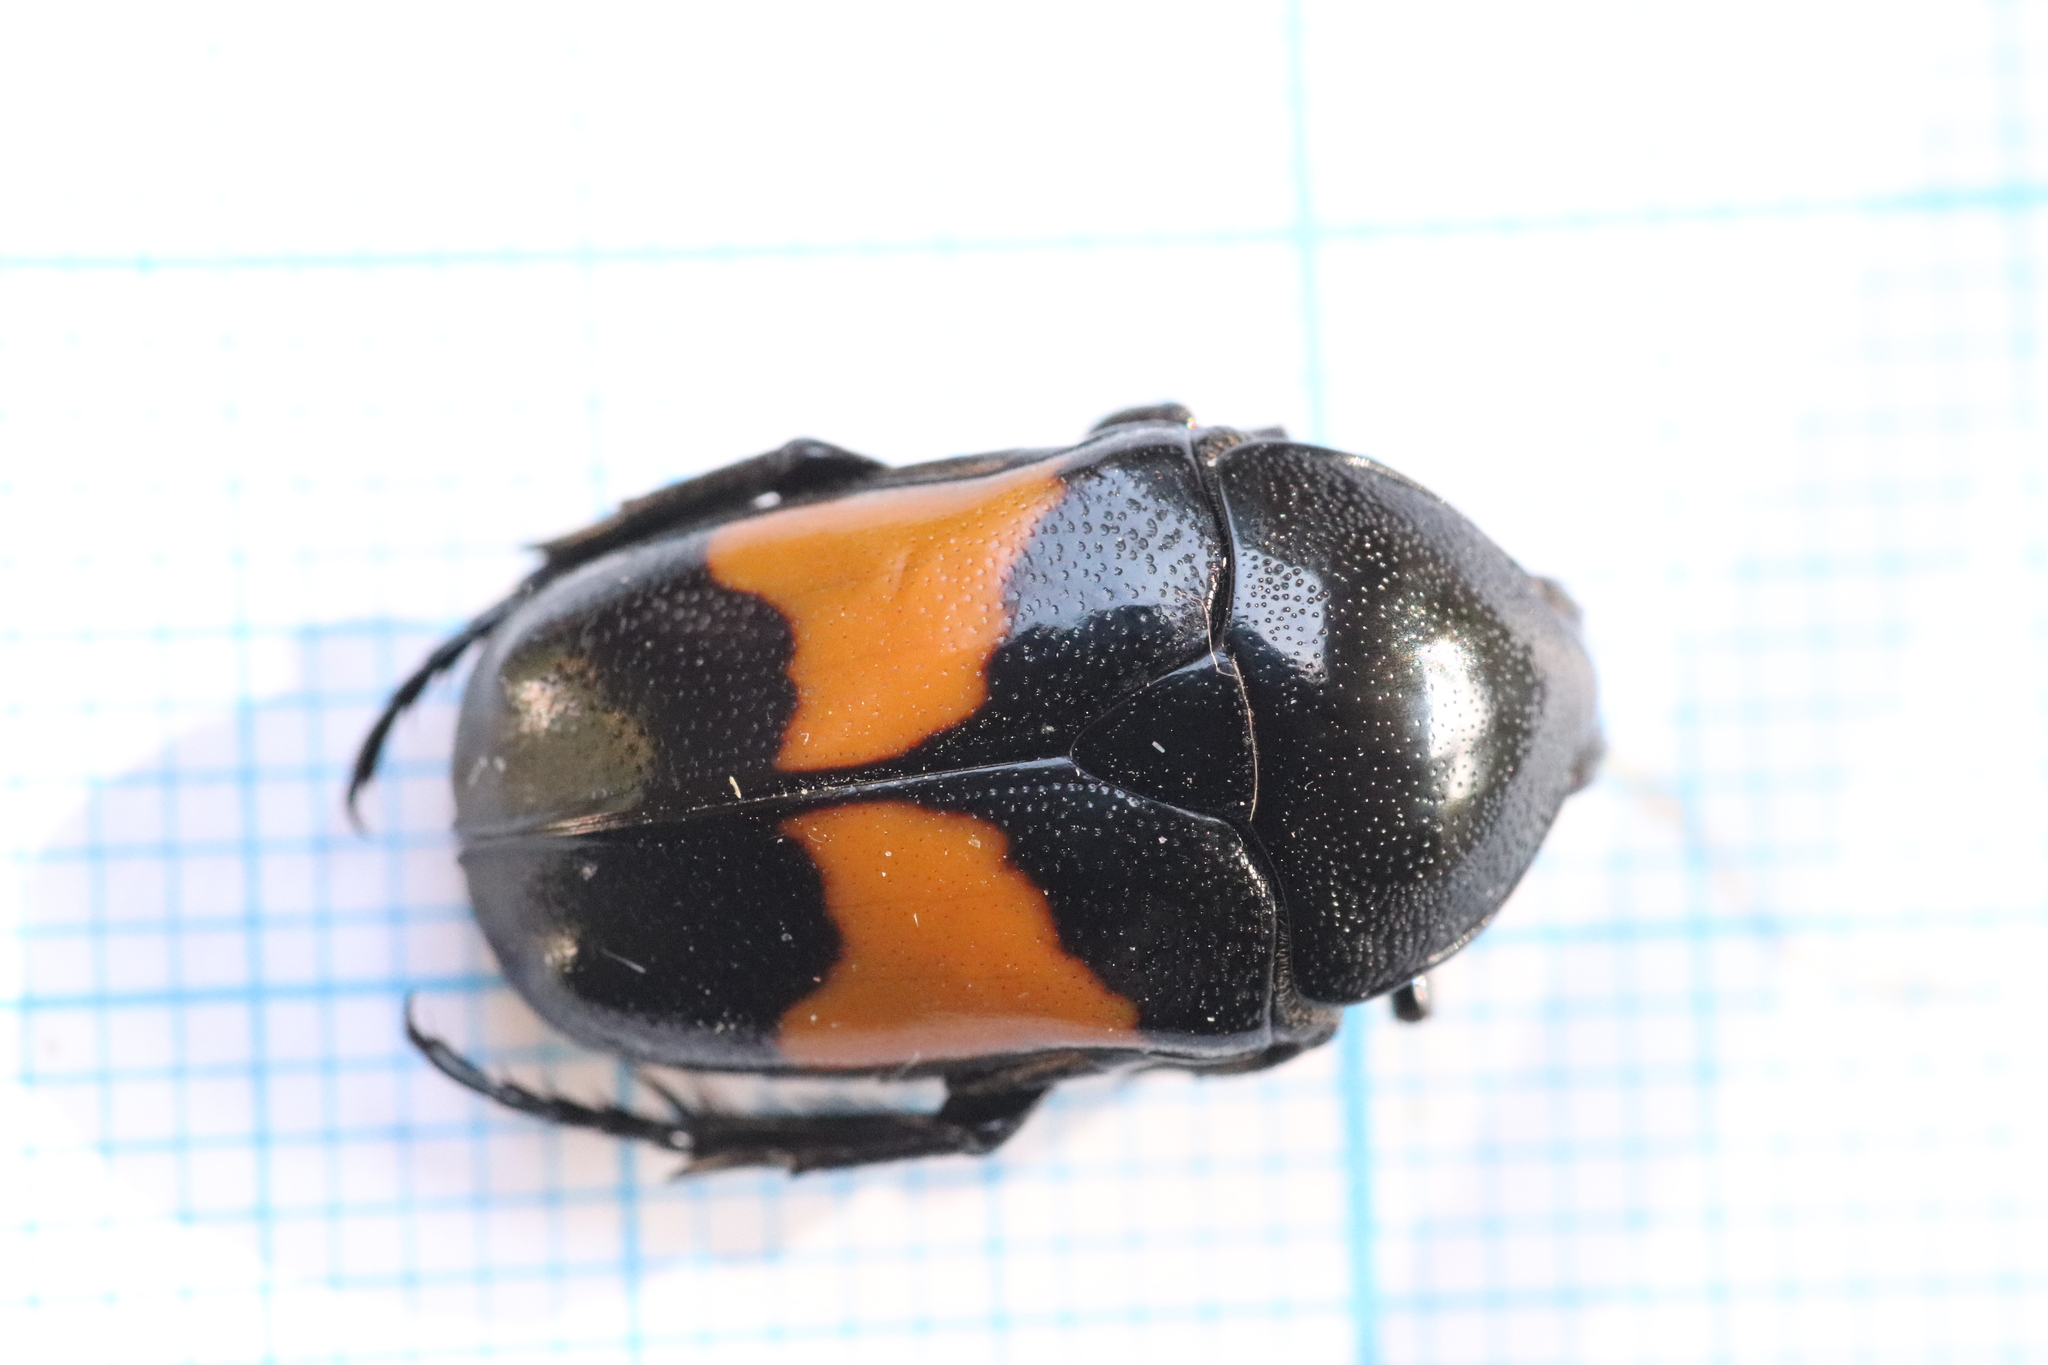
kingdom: Animalia
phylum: Arthropoda
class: Insecta
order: Coleoptera
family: Scarabaeidae
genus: Chondrorrhina
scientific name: Chondrorrhina abbreviata
